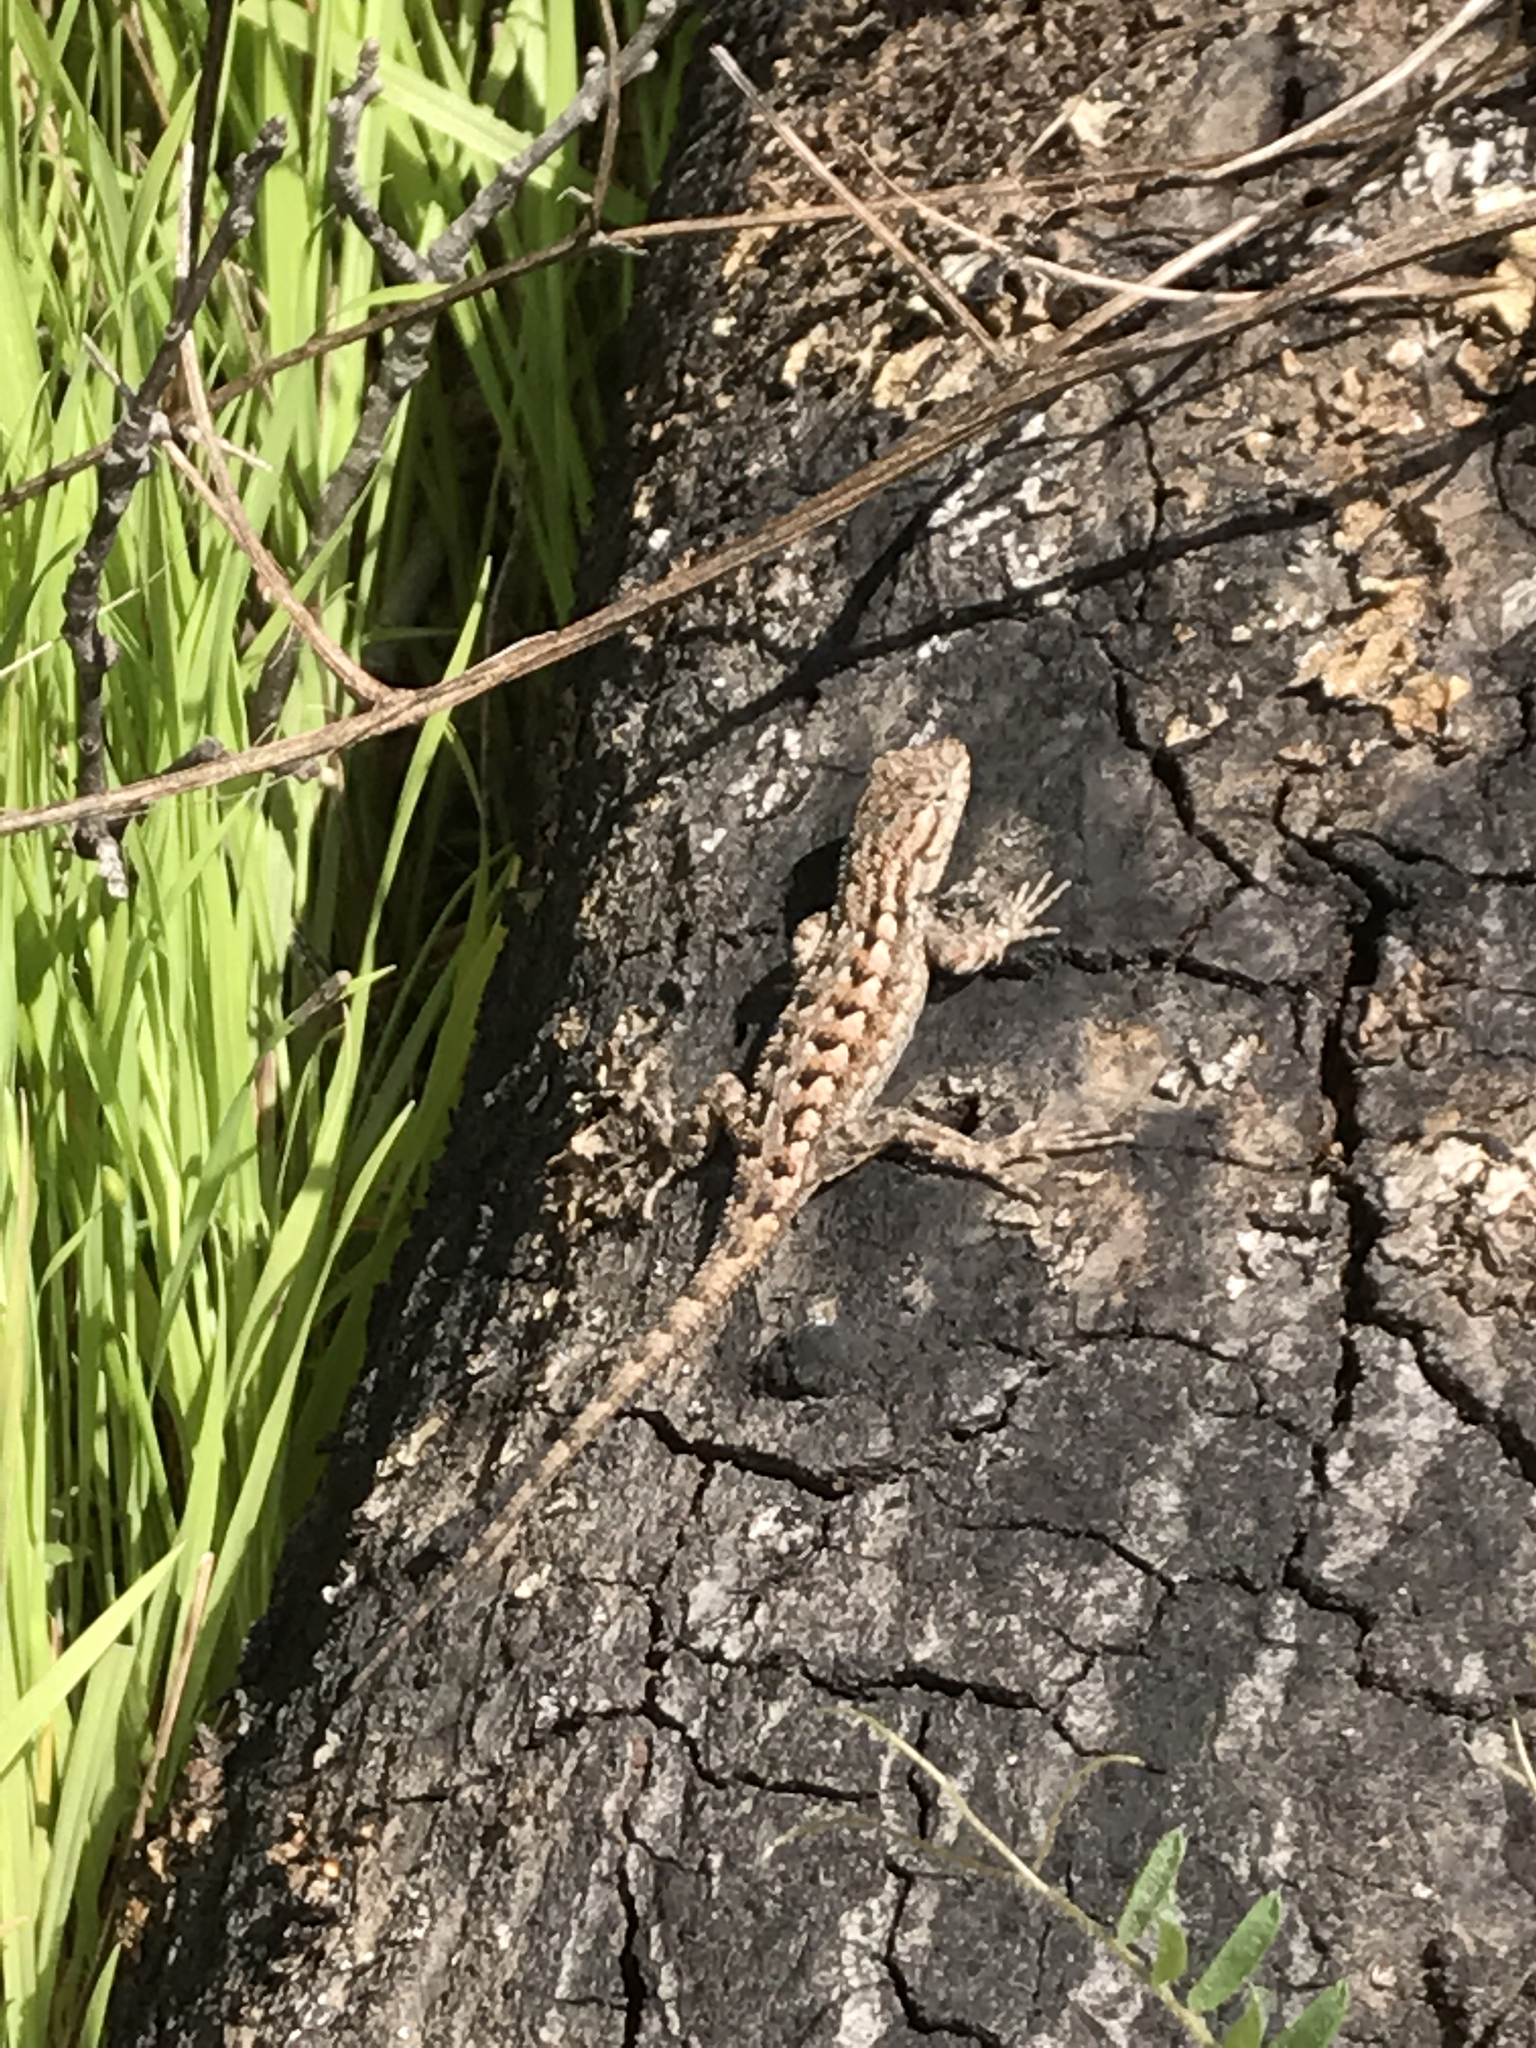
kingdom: Animalia
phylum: Chordata
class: Squamata
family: Phrynosomatidae
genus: Sceloporus
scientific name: Sceloporus occidentalis
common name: Western fence lizard
